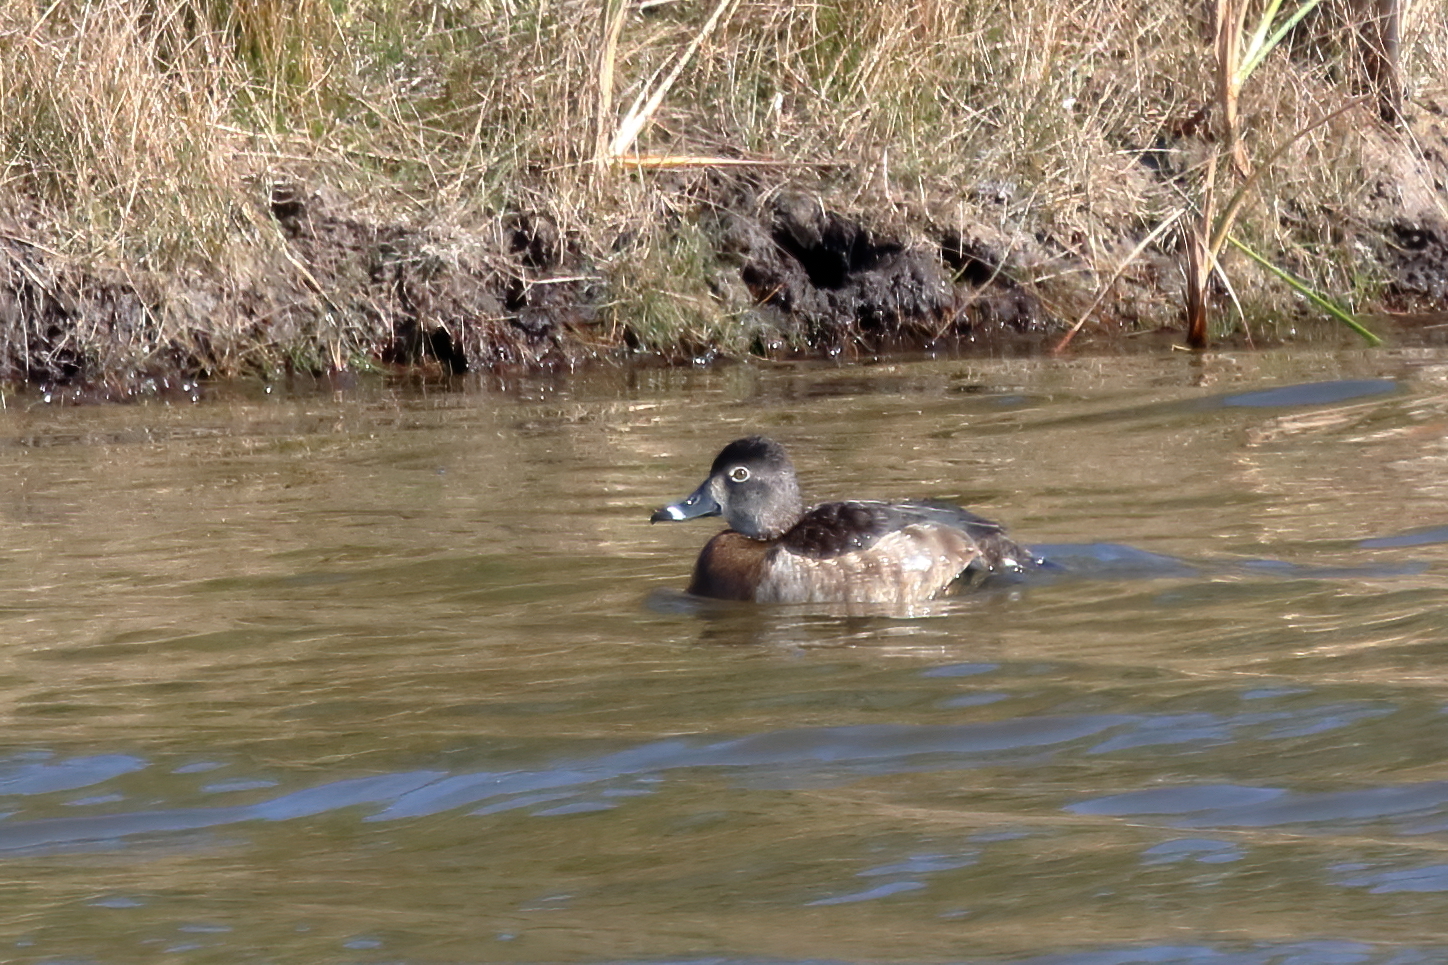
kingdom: Animalia
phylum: Chordata
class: Aves
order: Anseriformes
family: Anatidae
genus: Aythya
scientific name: Aythya collaris
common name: Ring-necked duck
